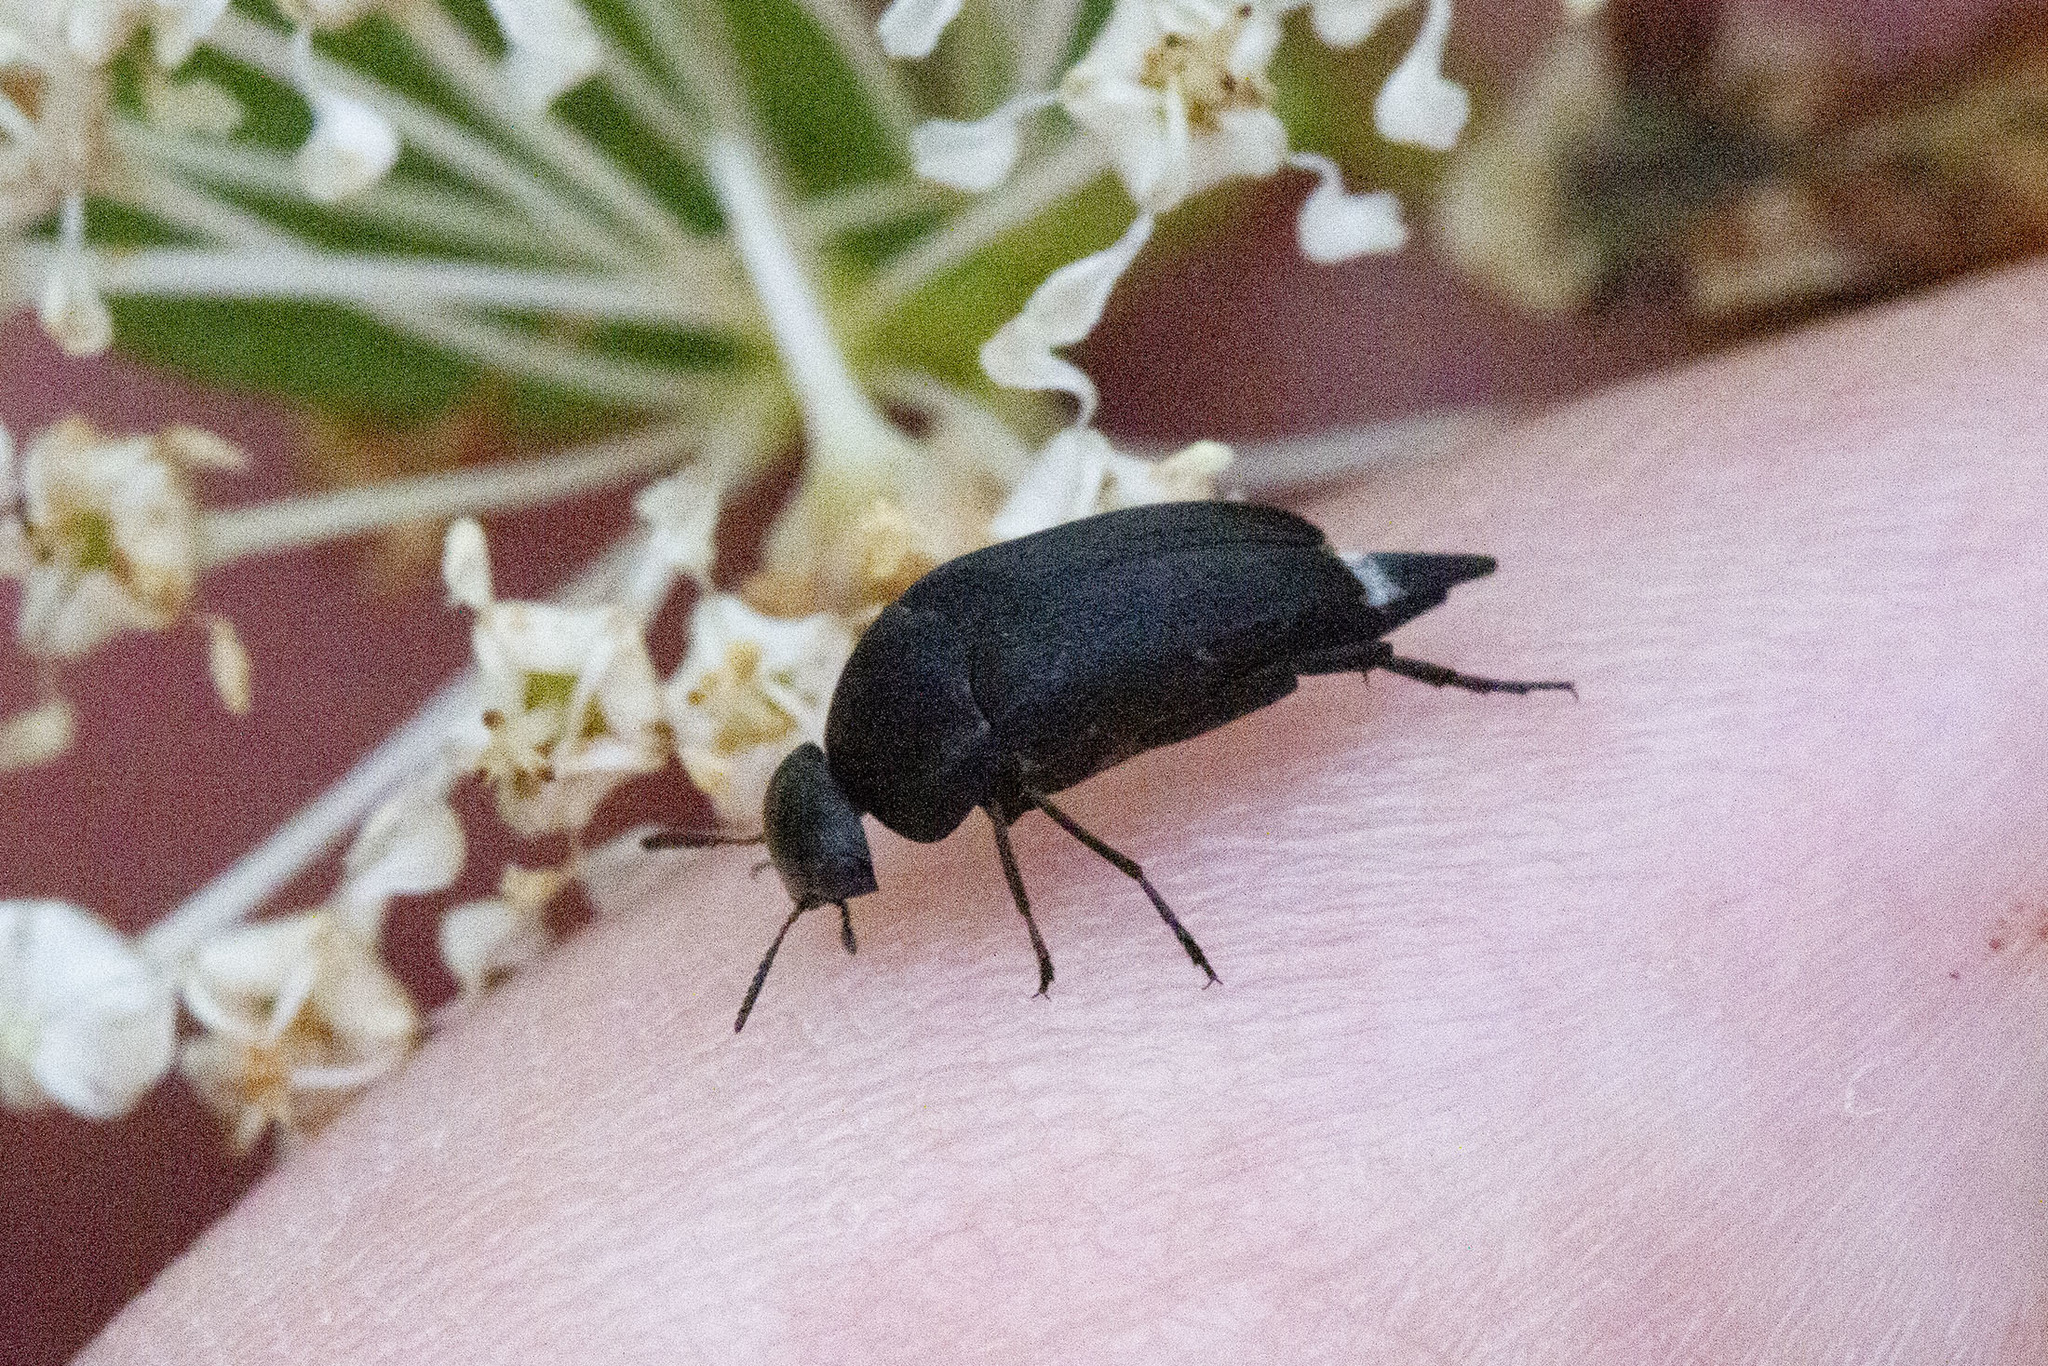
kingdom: Animalia
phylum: Arthropoda
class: Insecta
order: Coleoptera
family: Mordellidae
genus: Mordella
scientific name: Mordella atrata
